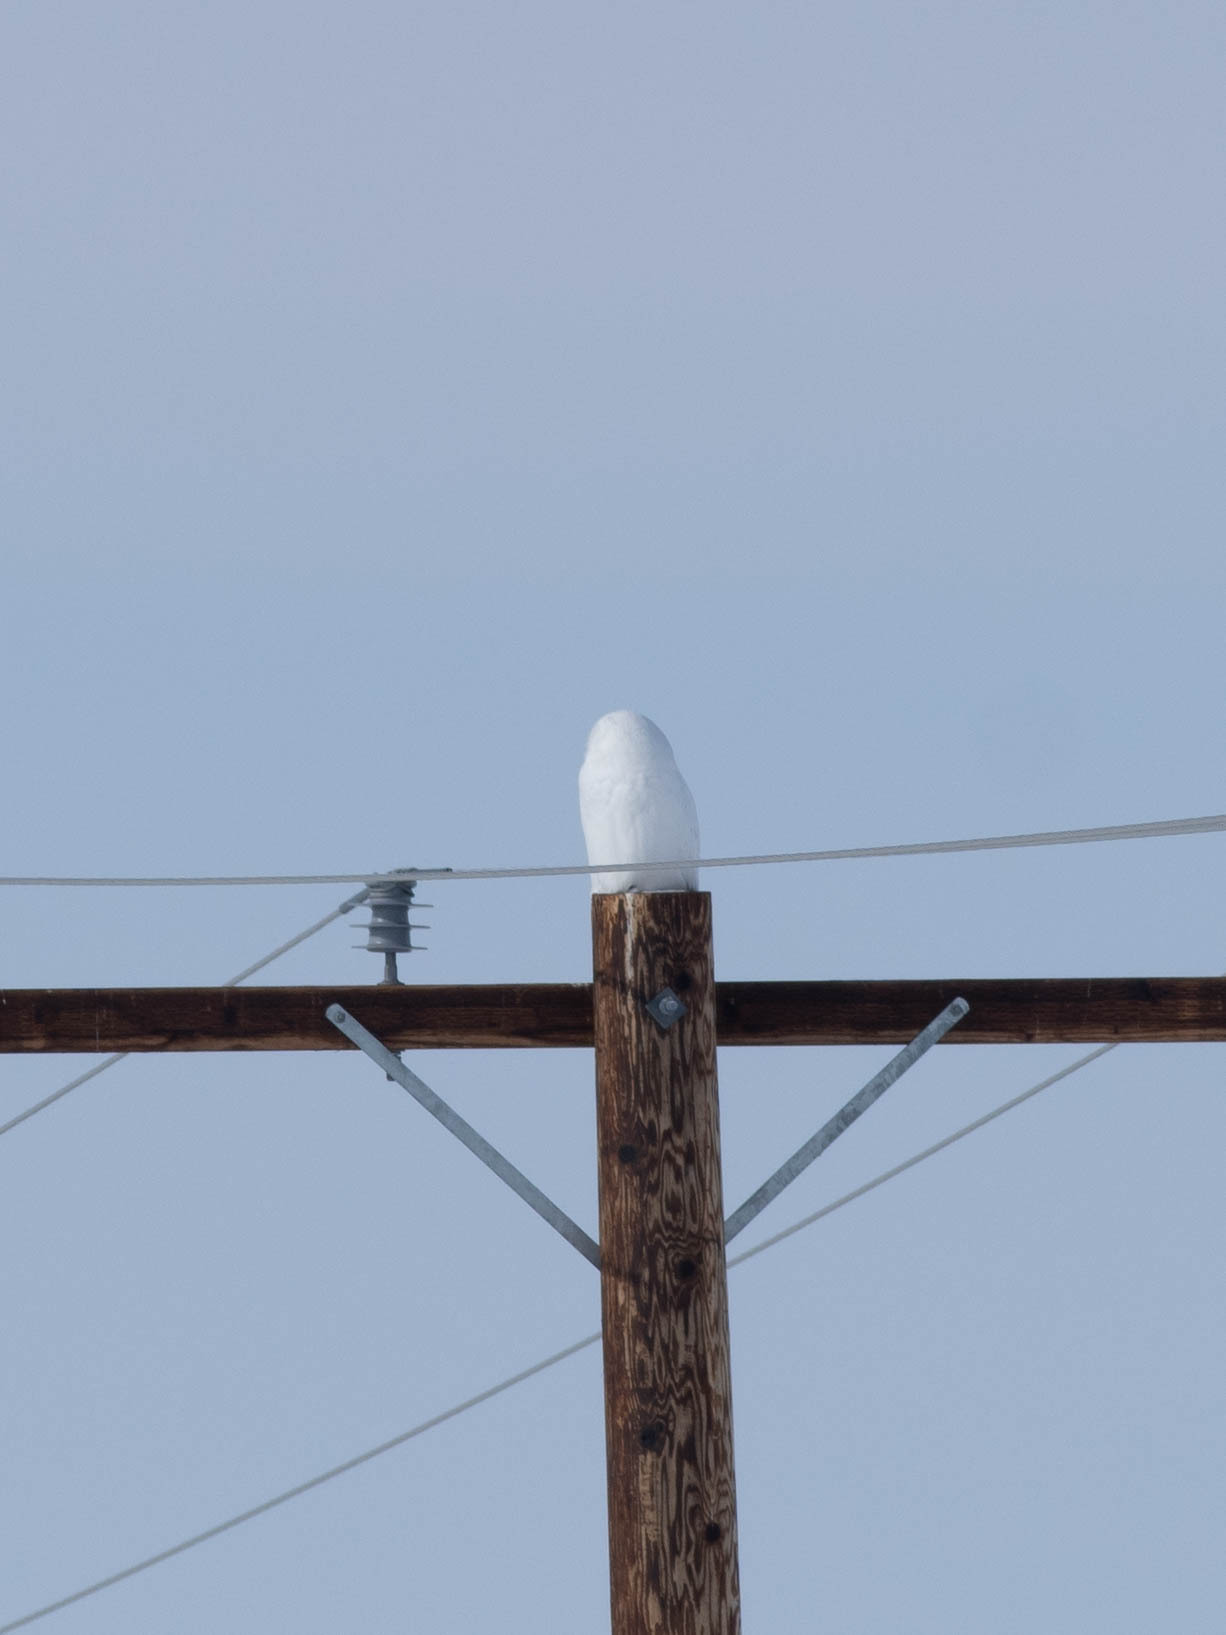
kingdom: Animalia
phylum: Chordata
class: Aves
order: Strigiformes
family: Strigidae
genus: Bubo
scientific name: Bubo scandiacus
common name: Snowy owl
